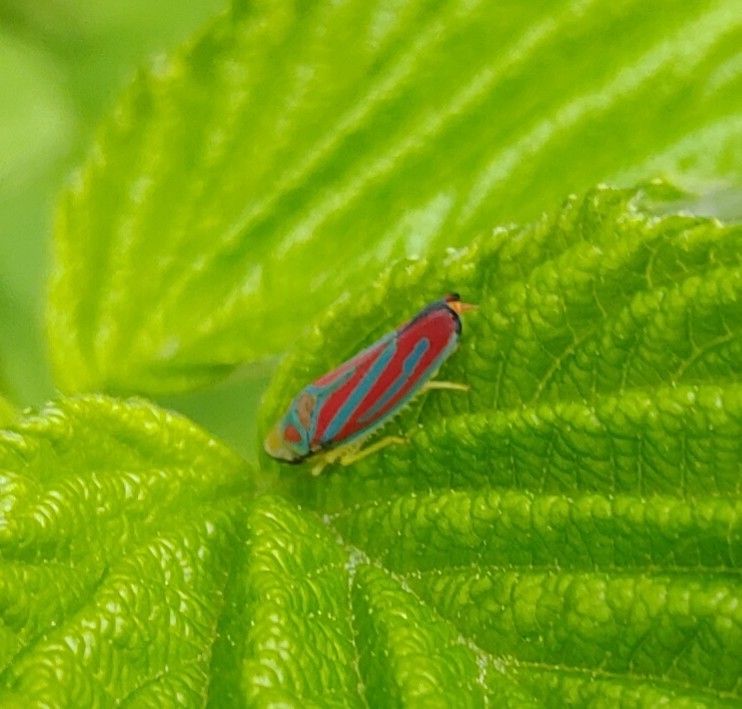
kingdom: Animalia
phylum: Arthropoda
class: Insecta
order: Hemiptera
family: Cicadellidae
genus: Graphocephala
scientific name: Graphocephala coccinea
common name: Candy-striped leafhopper
